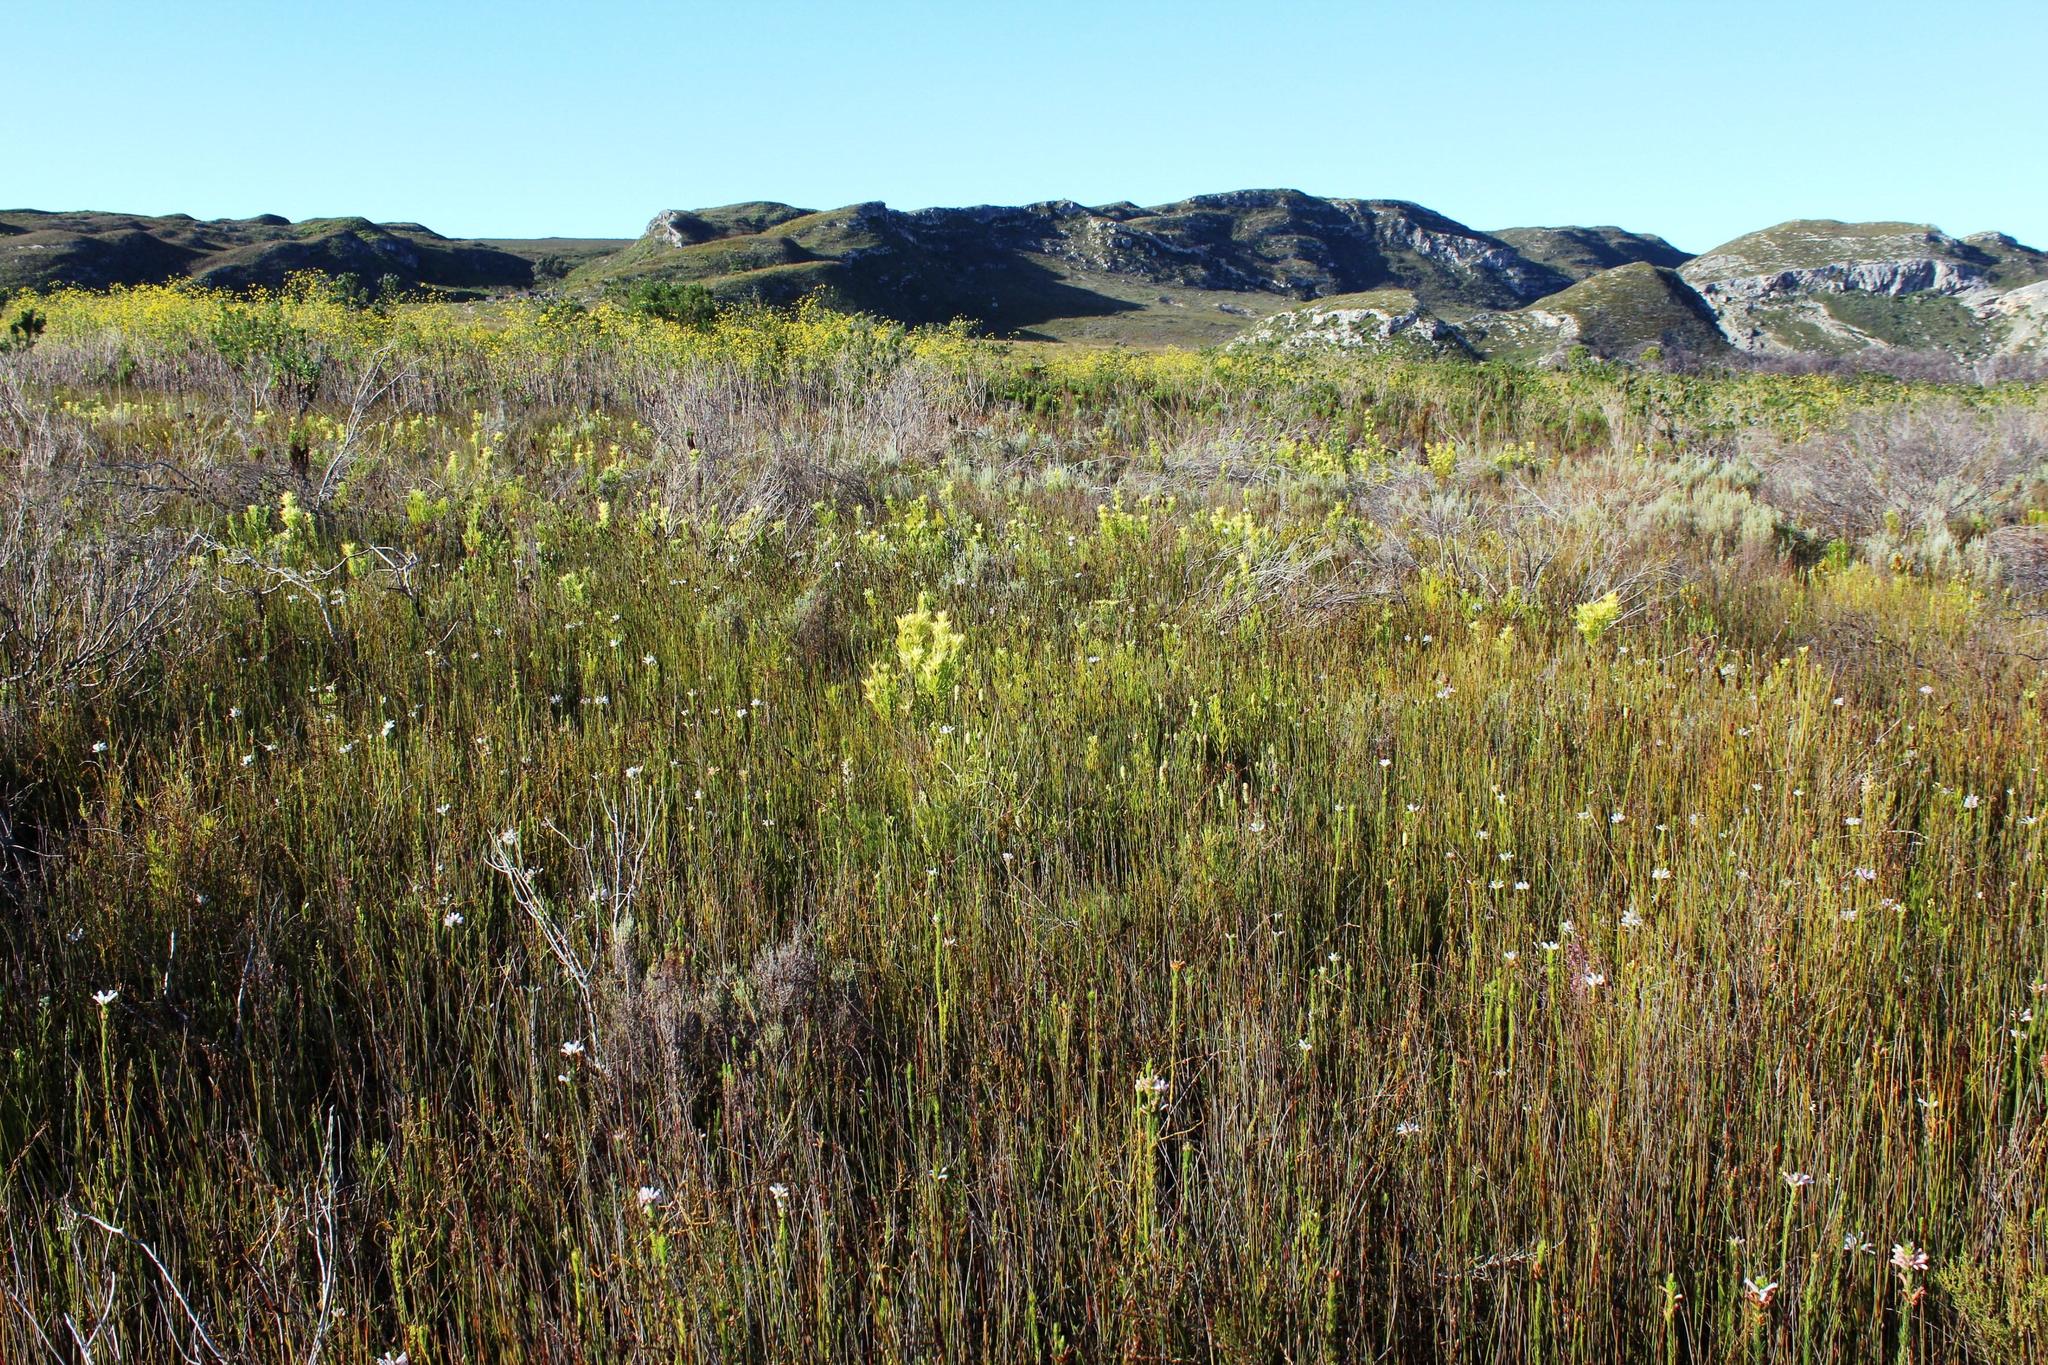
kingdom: Plantae
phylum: Tracheophyta
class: Magnoliopsida
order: Ericales
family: Ericaceae
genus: Erica
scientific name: Erica vestita
